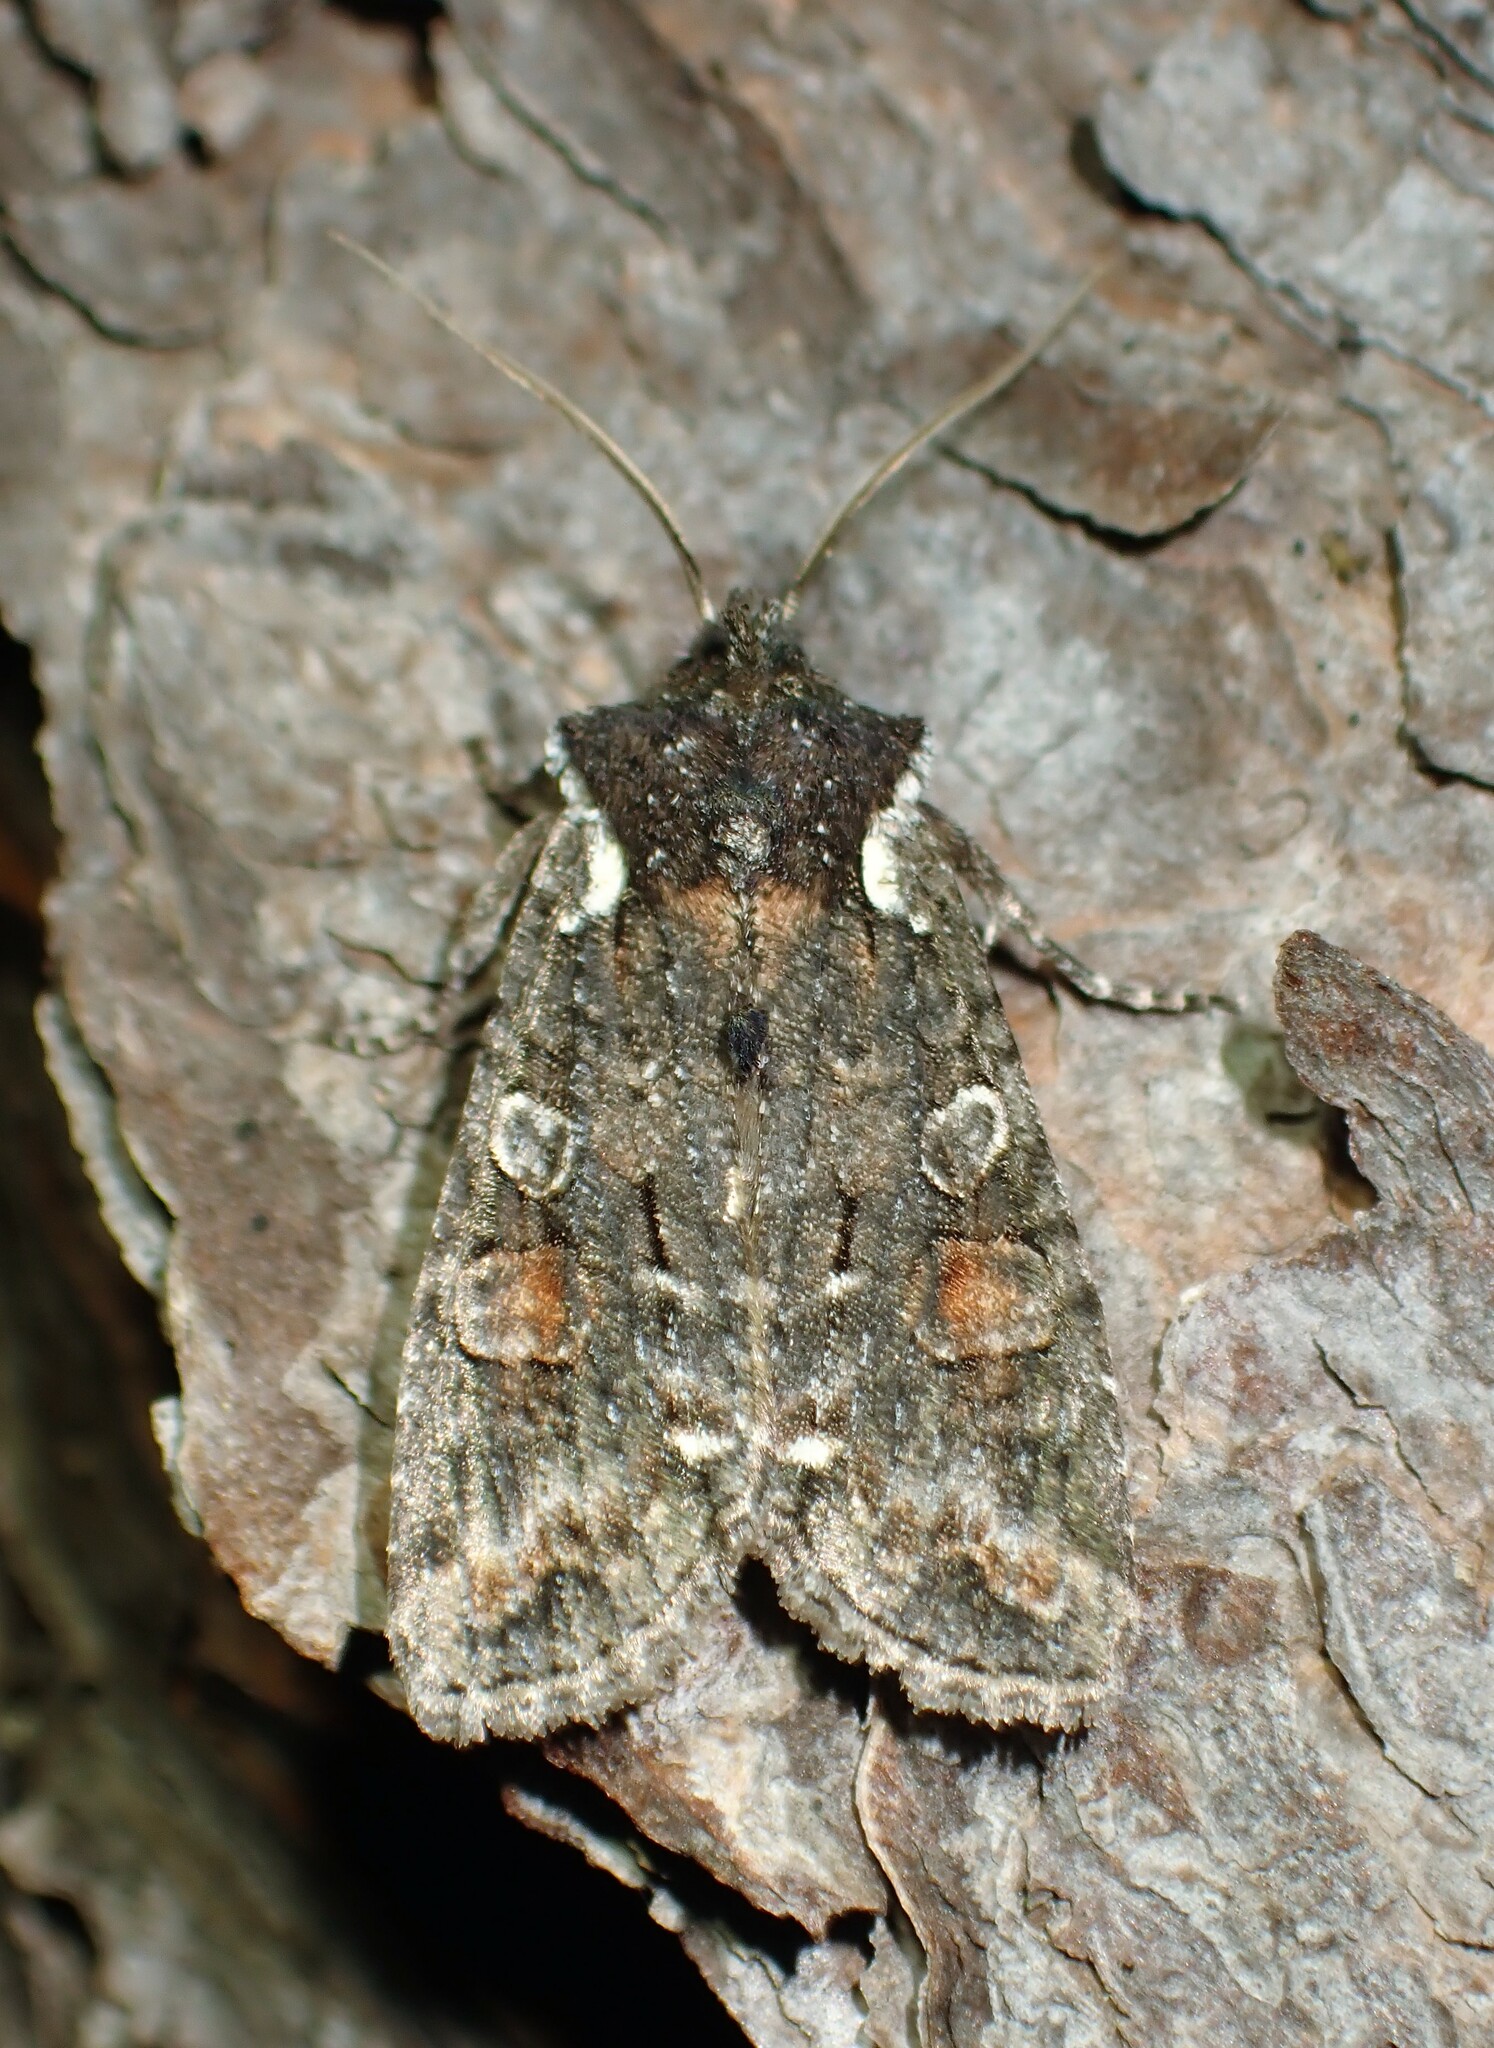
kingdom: Animalia
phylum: Arthropoda
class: Insecta
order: Lepidoptera
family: Noctuidae
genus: Lithophane
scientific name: Lithophane pexata
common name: Plush-naped pinion moth
